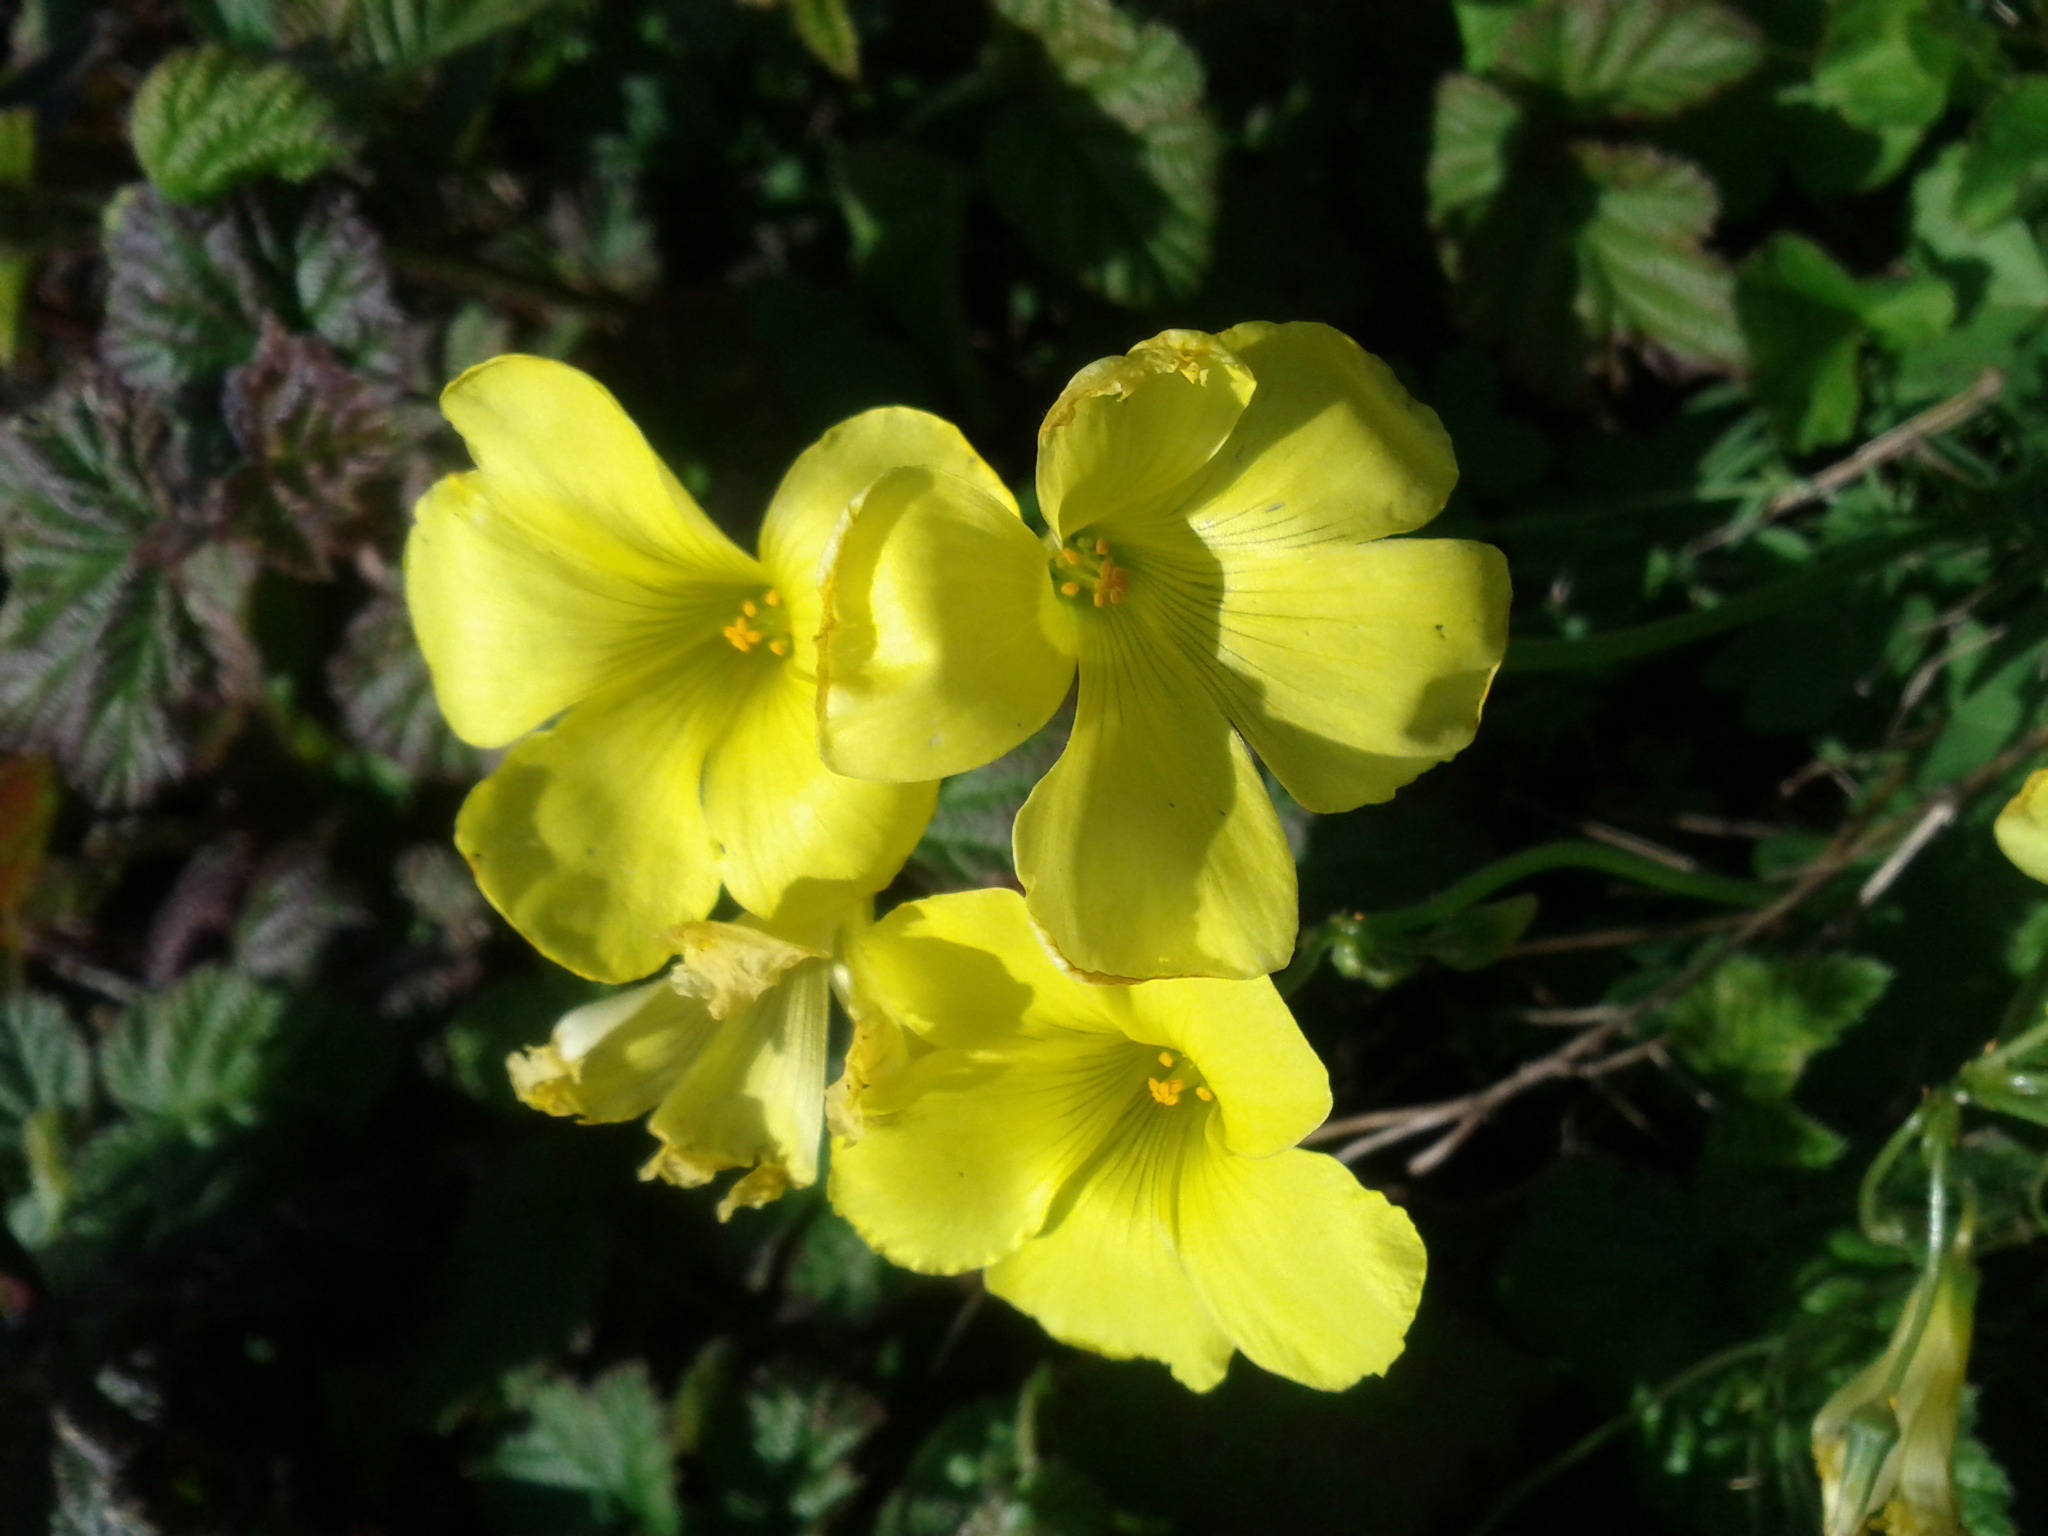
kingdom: Plantae
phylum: Tracheophyta
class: Magnoliopsida
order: Oxalidales
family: Oxalidaceae
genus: Oxalis
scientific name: Oxalis pes-caprae
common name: Bermuda-buttercup
